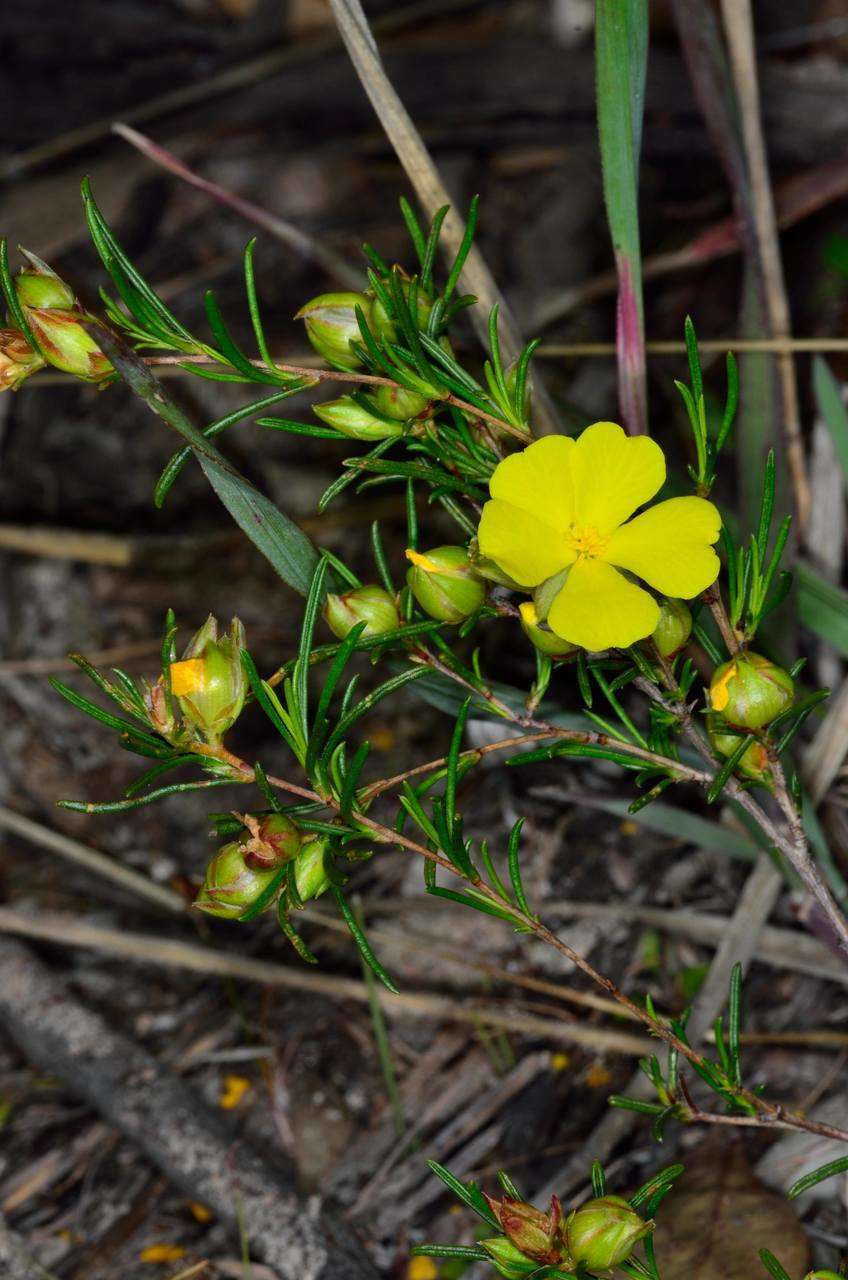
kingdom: Plantae
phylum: Tracheophyta
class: Magnoliopsida
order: Dilleniales
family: Dilleniaceae
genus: Hibbertia
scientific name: Hibbertia virgata
